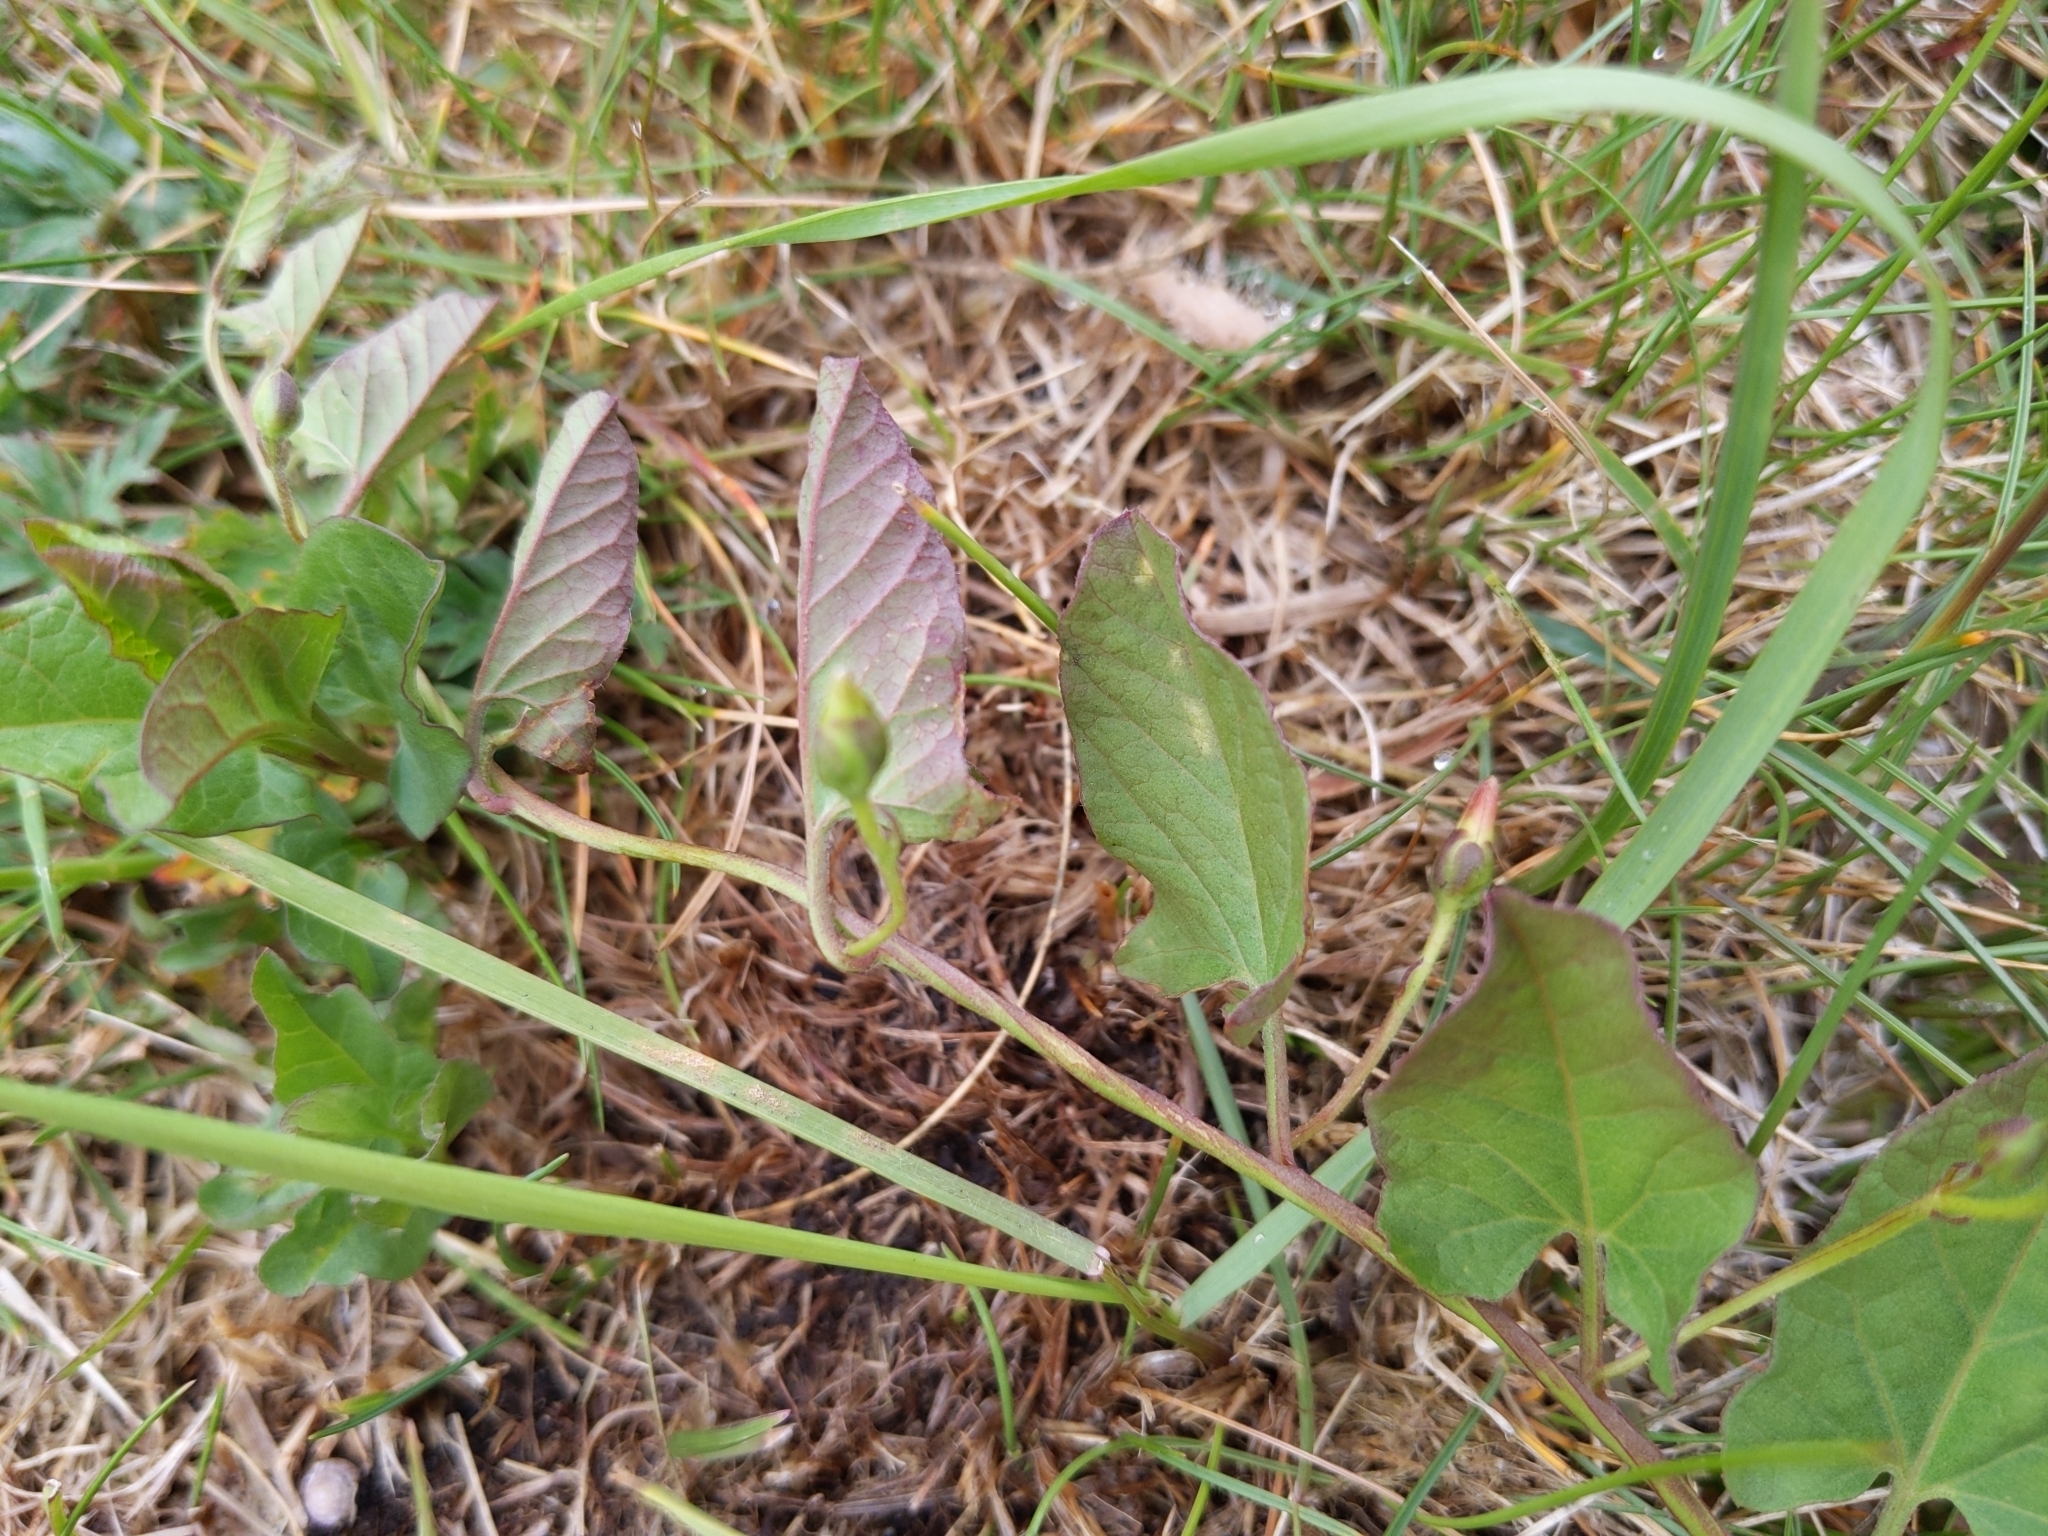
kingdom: Plantae
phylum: Tracheophyta
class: Magnoliopsida
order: Solanales
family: Convolvulaceae
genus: Convolvulus
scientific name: Convolvulus arvensis
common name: Field bindweed
